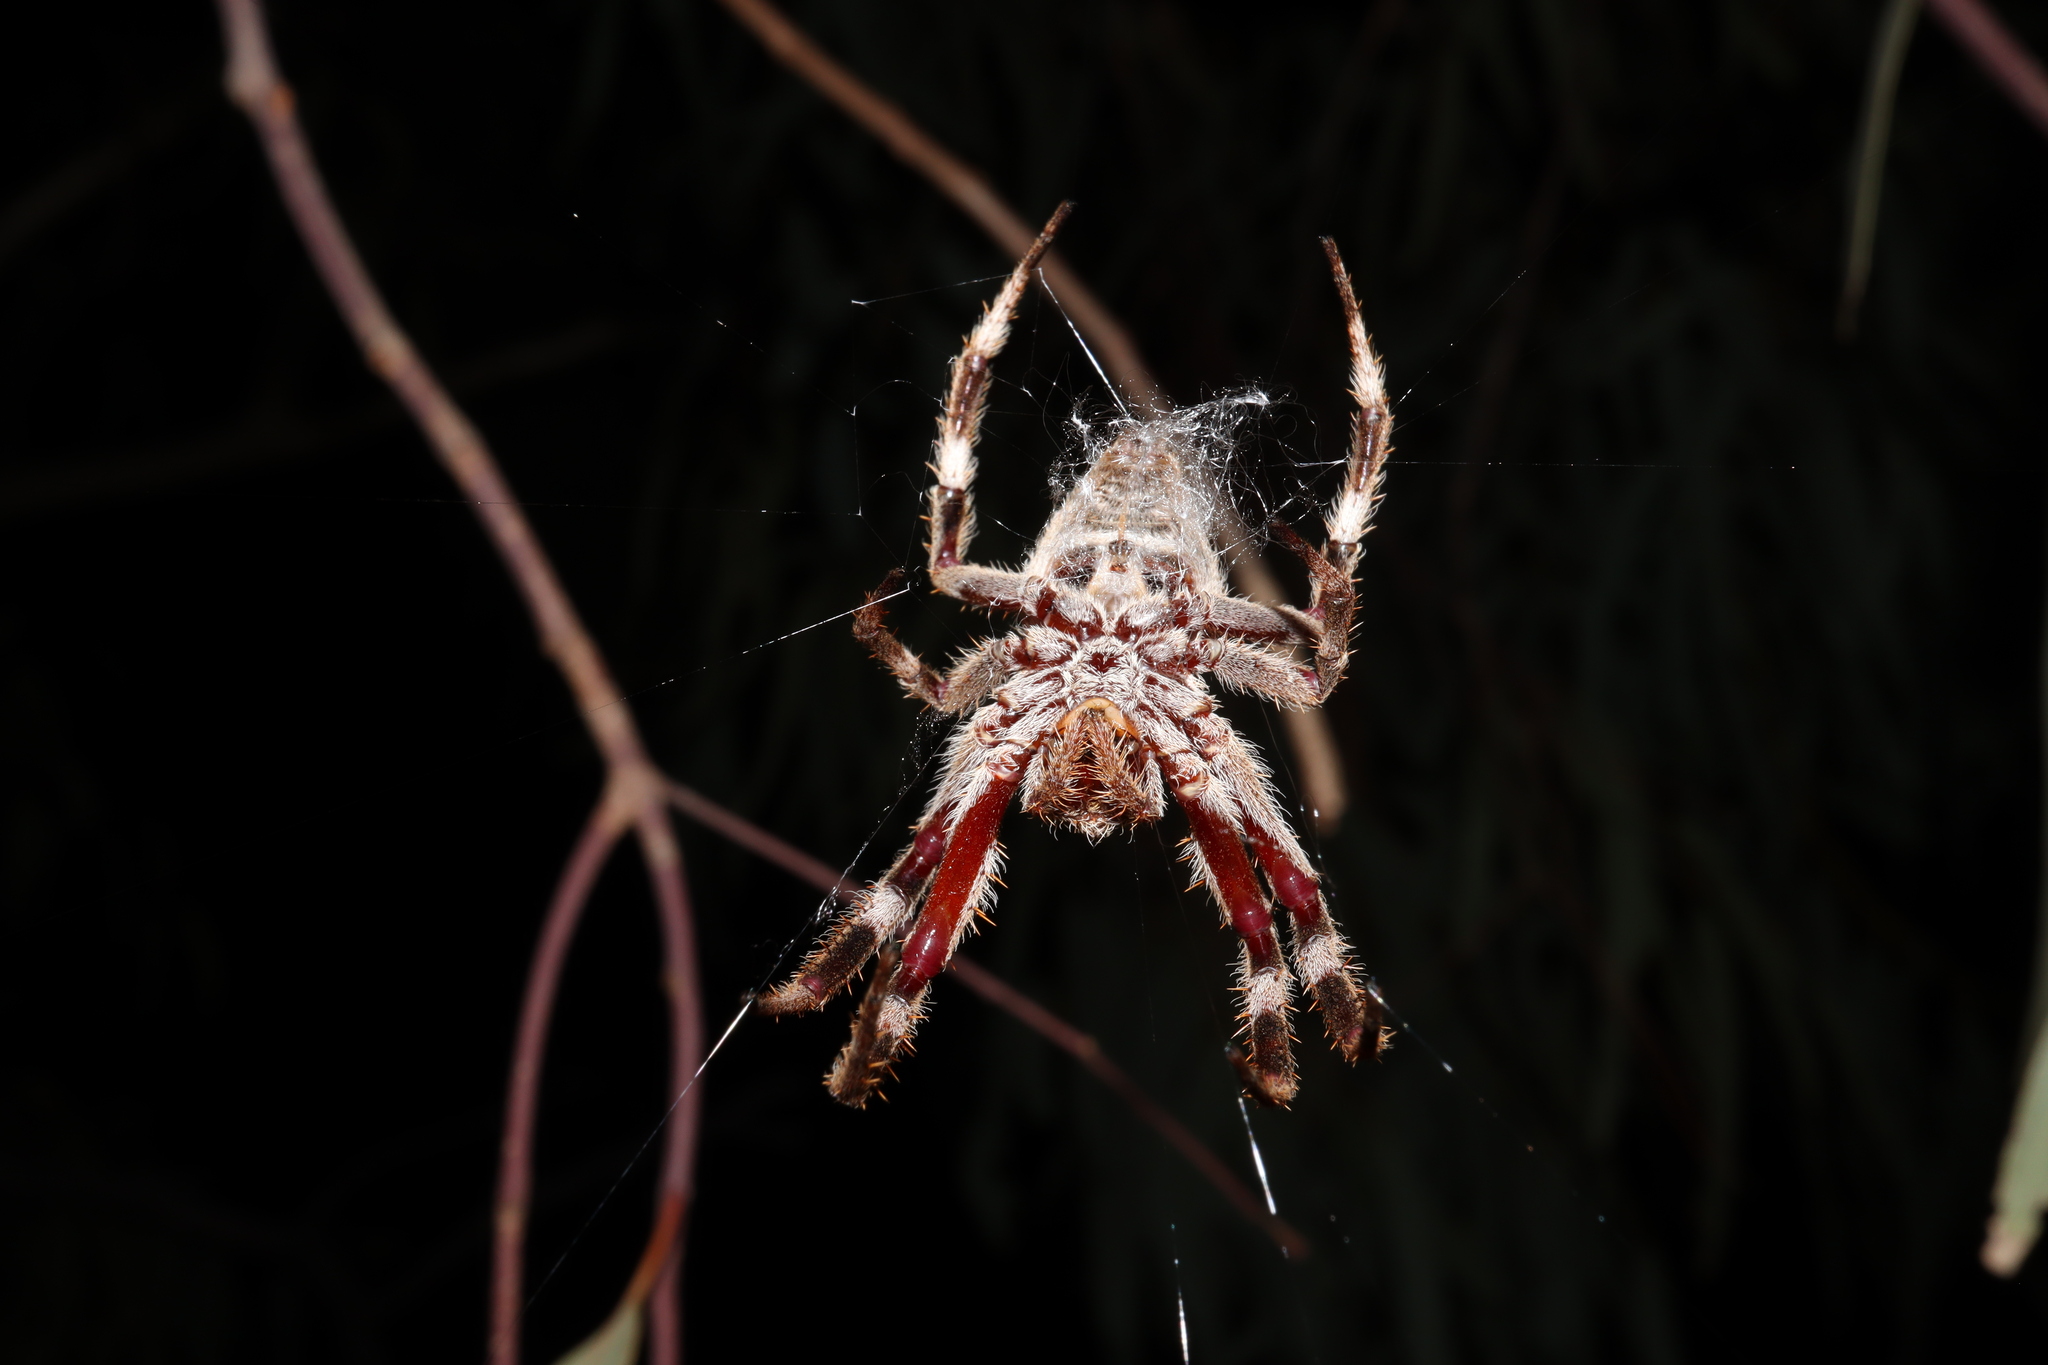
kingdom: Animalia
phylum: Arthropoda
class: Arachnida
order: Araneae
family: Araneidae
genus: Hortophora
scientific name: Hortophora biapicata
